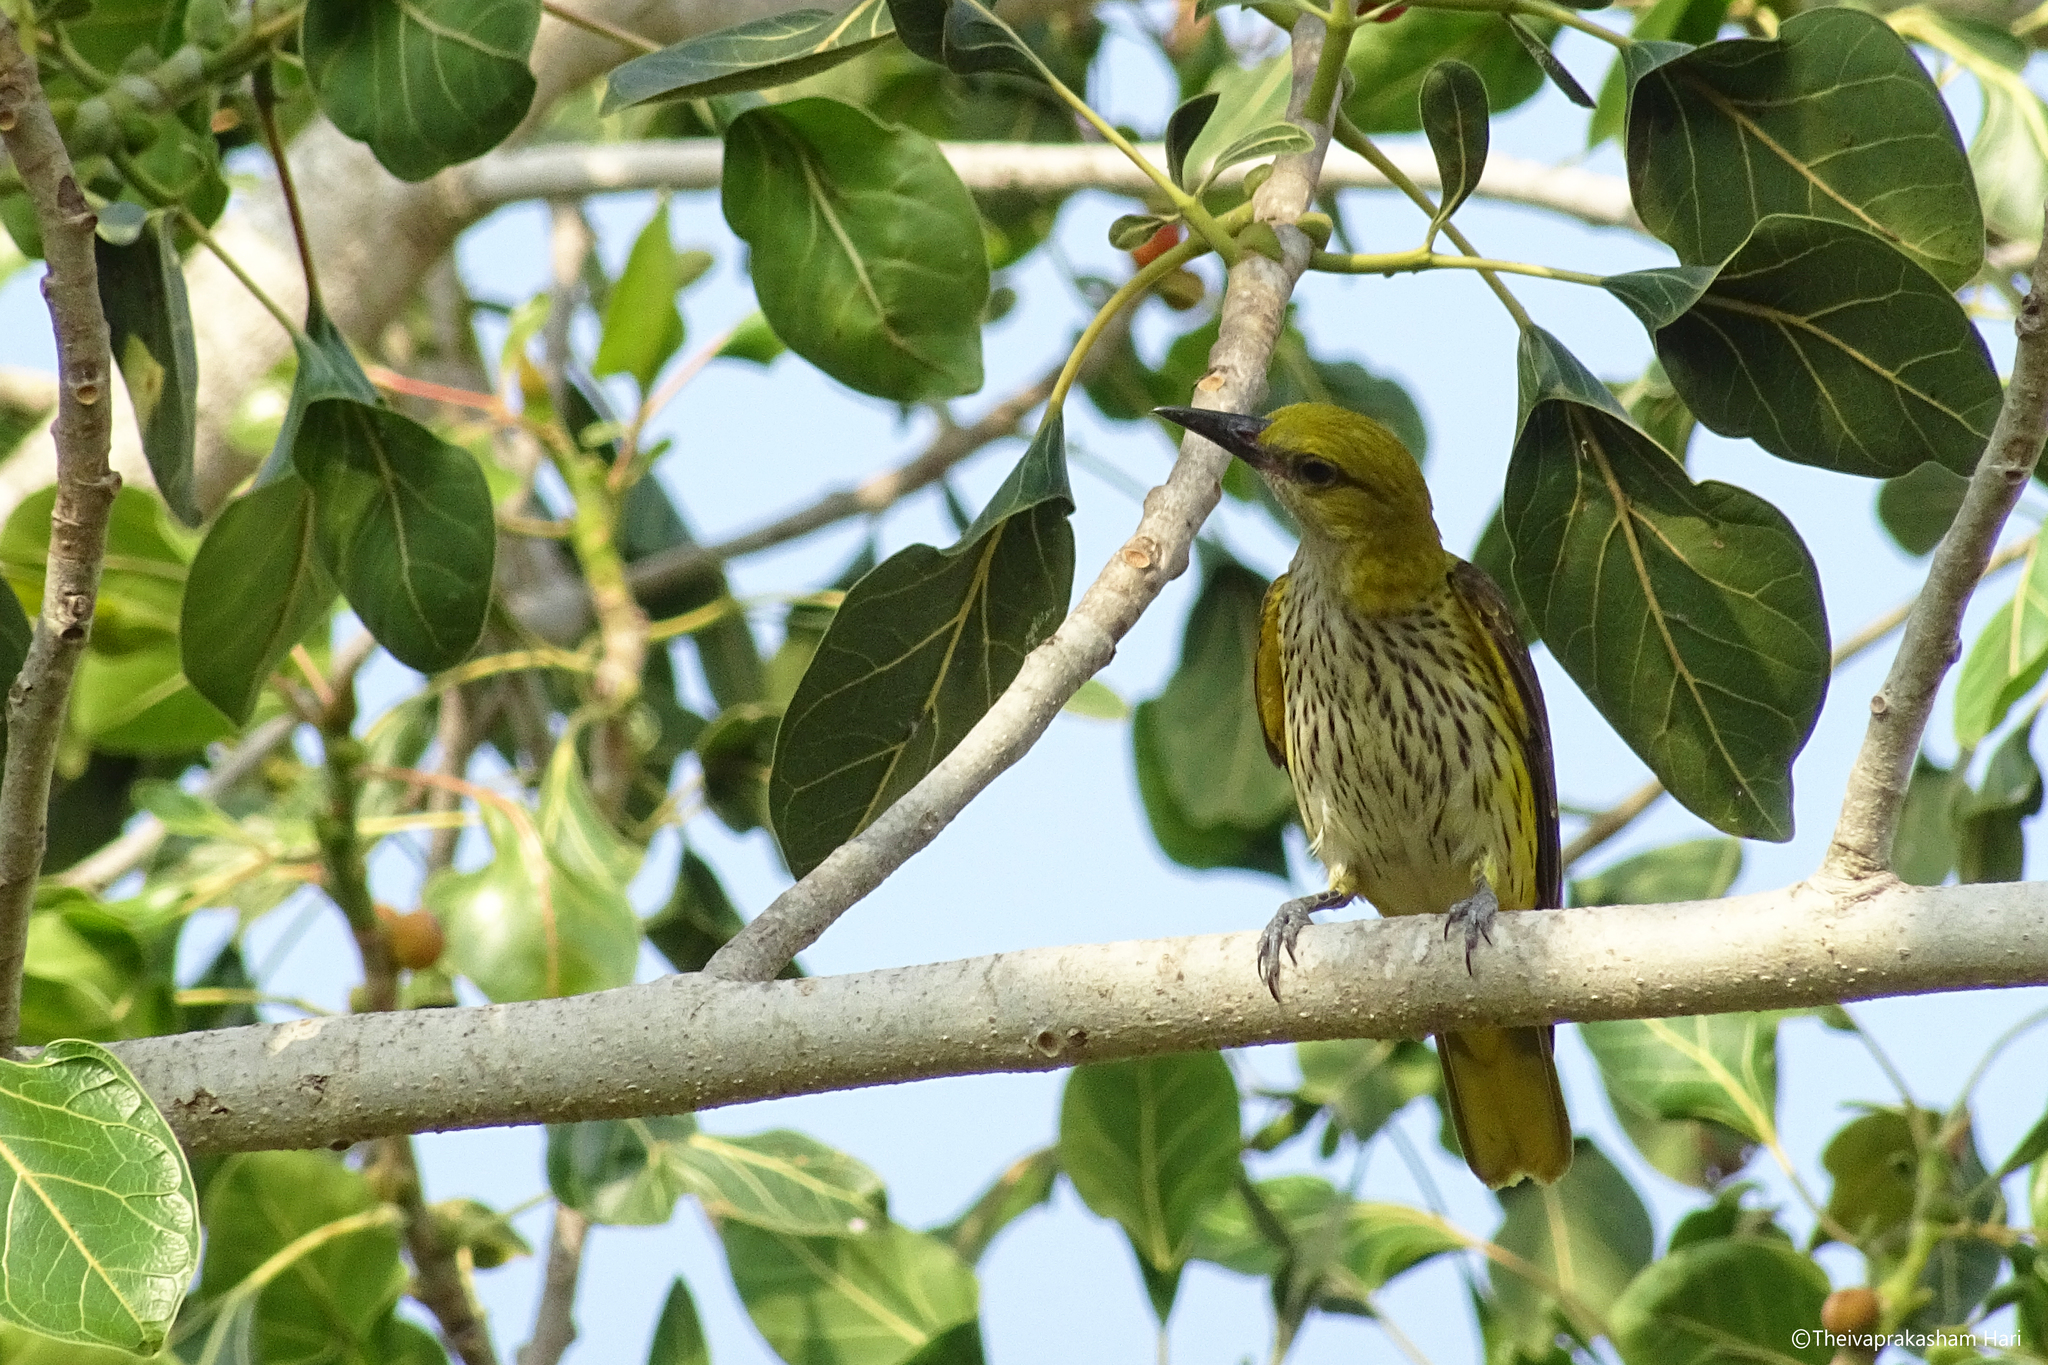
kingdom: Animalia
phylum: Chordata
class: Aves
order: Passeriformes
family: Oriolidae
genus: Oriolus
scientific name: Oriolus kundoo
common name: Indian golden oriole
